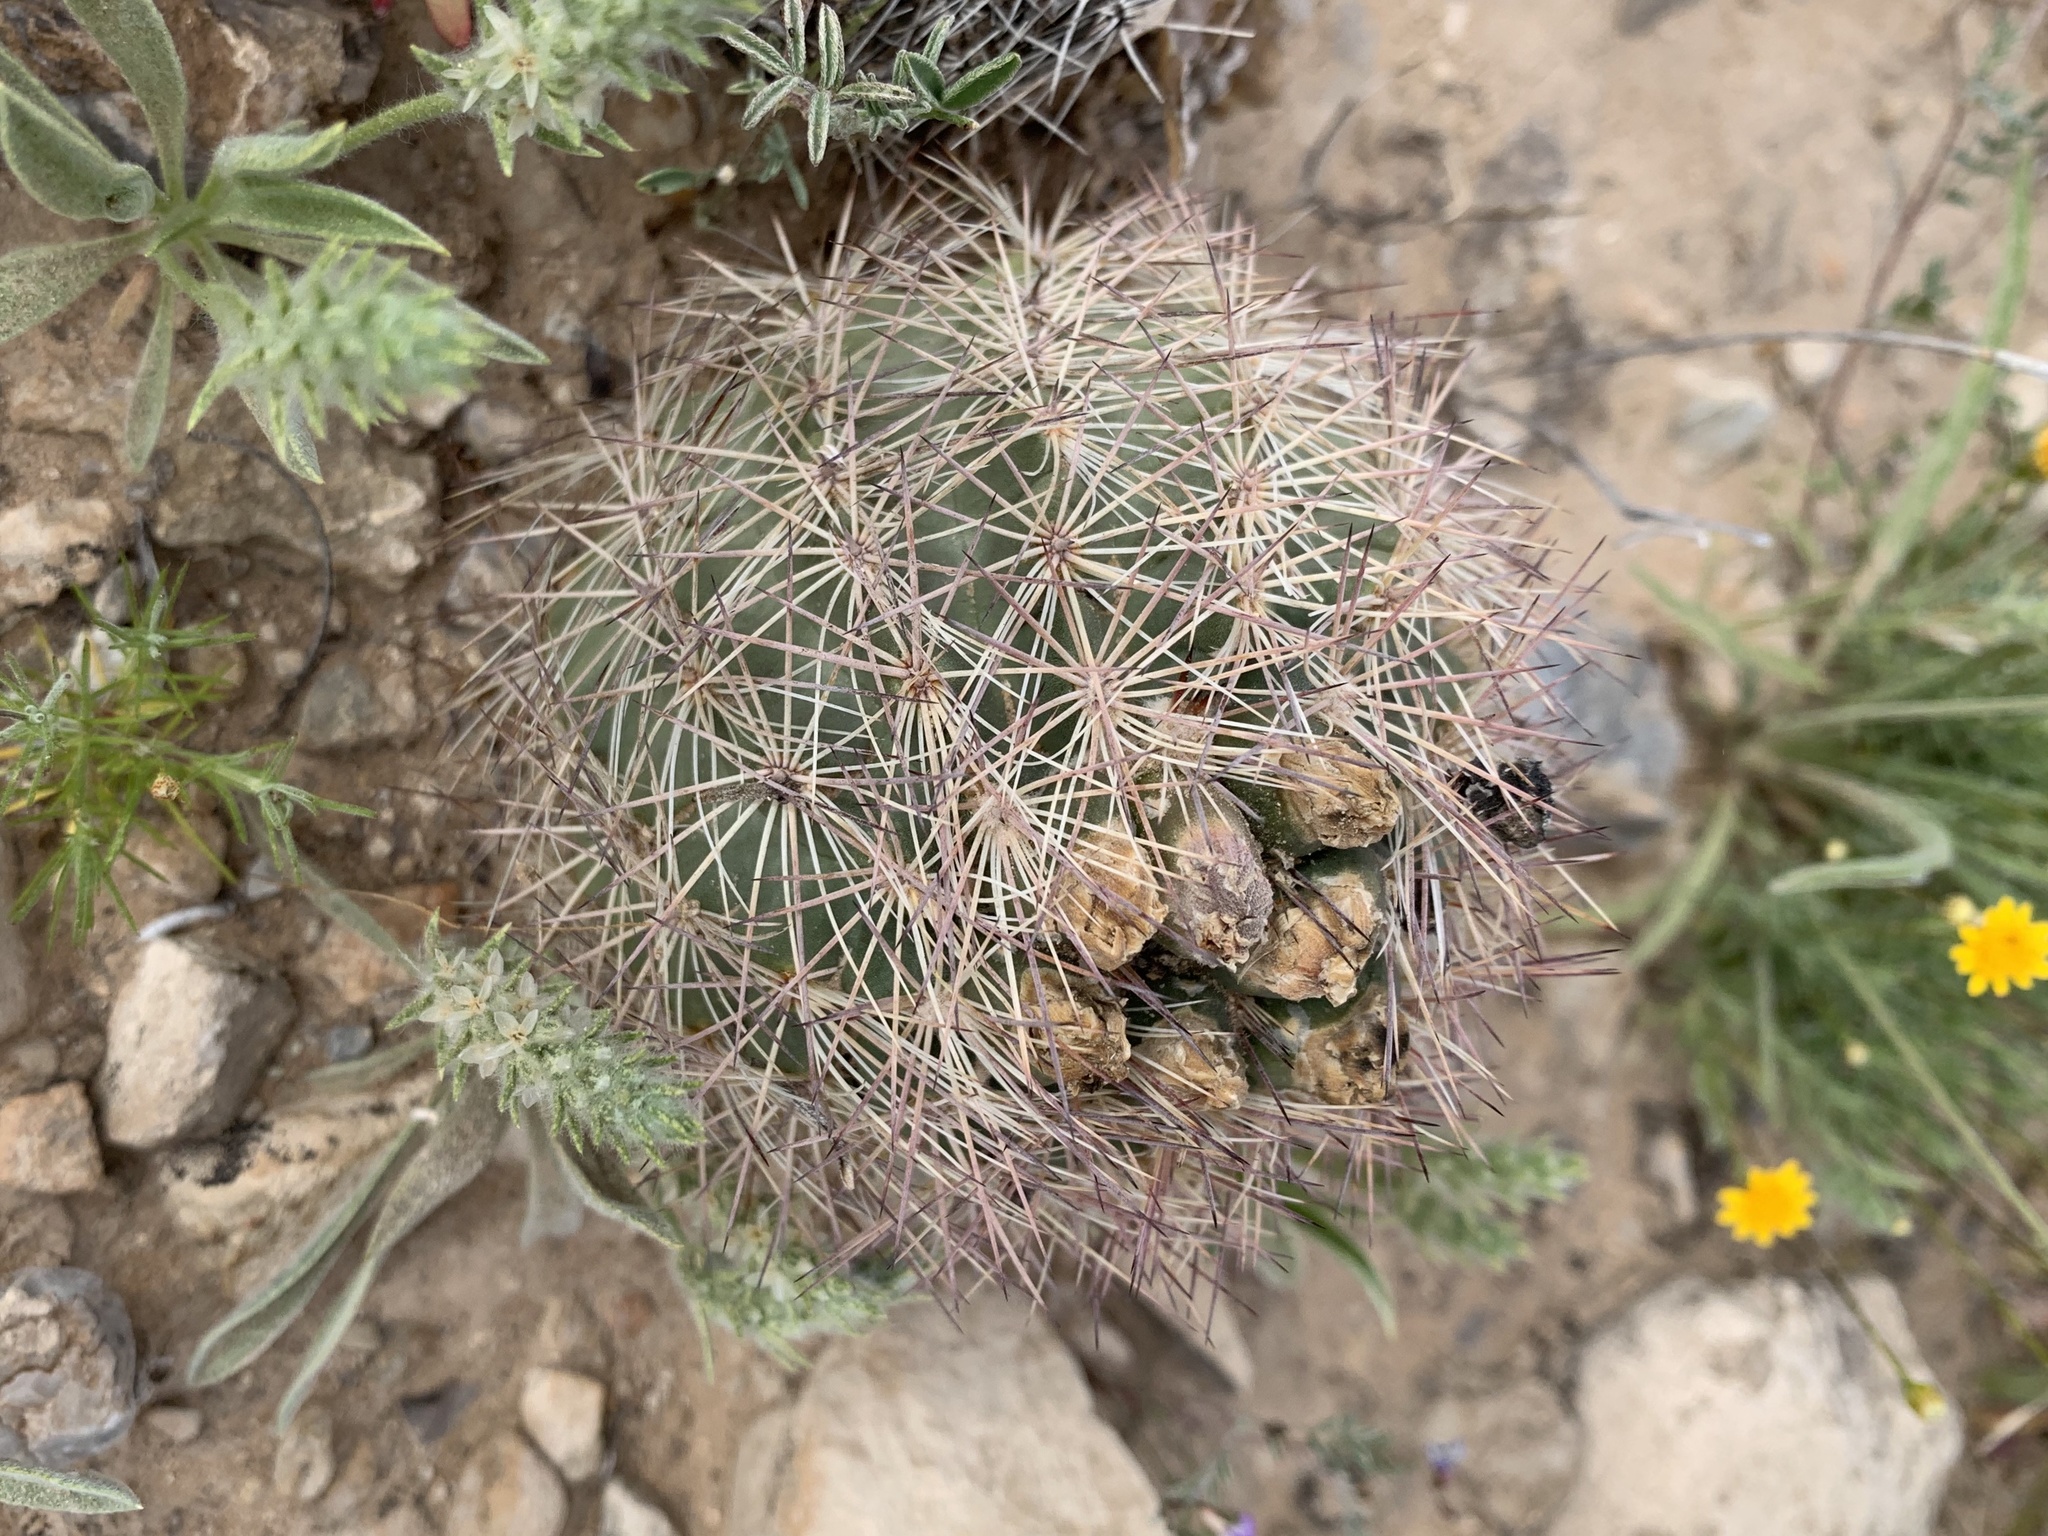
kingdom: Plantae
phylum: Tracheophyta
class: Magnoliopsida
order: Caryophyllales
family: Cactaceae
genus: Sclerocactus
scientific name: Sclerocactus intertextus
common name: White fish-hook cactus
